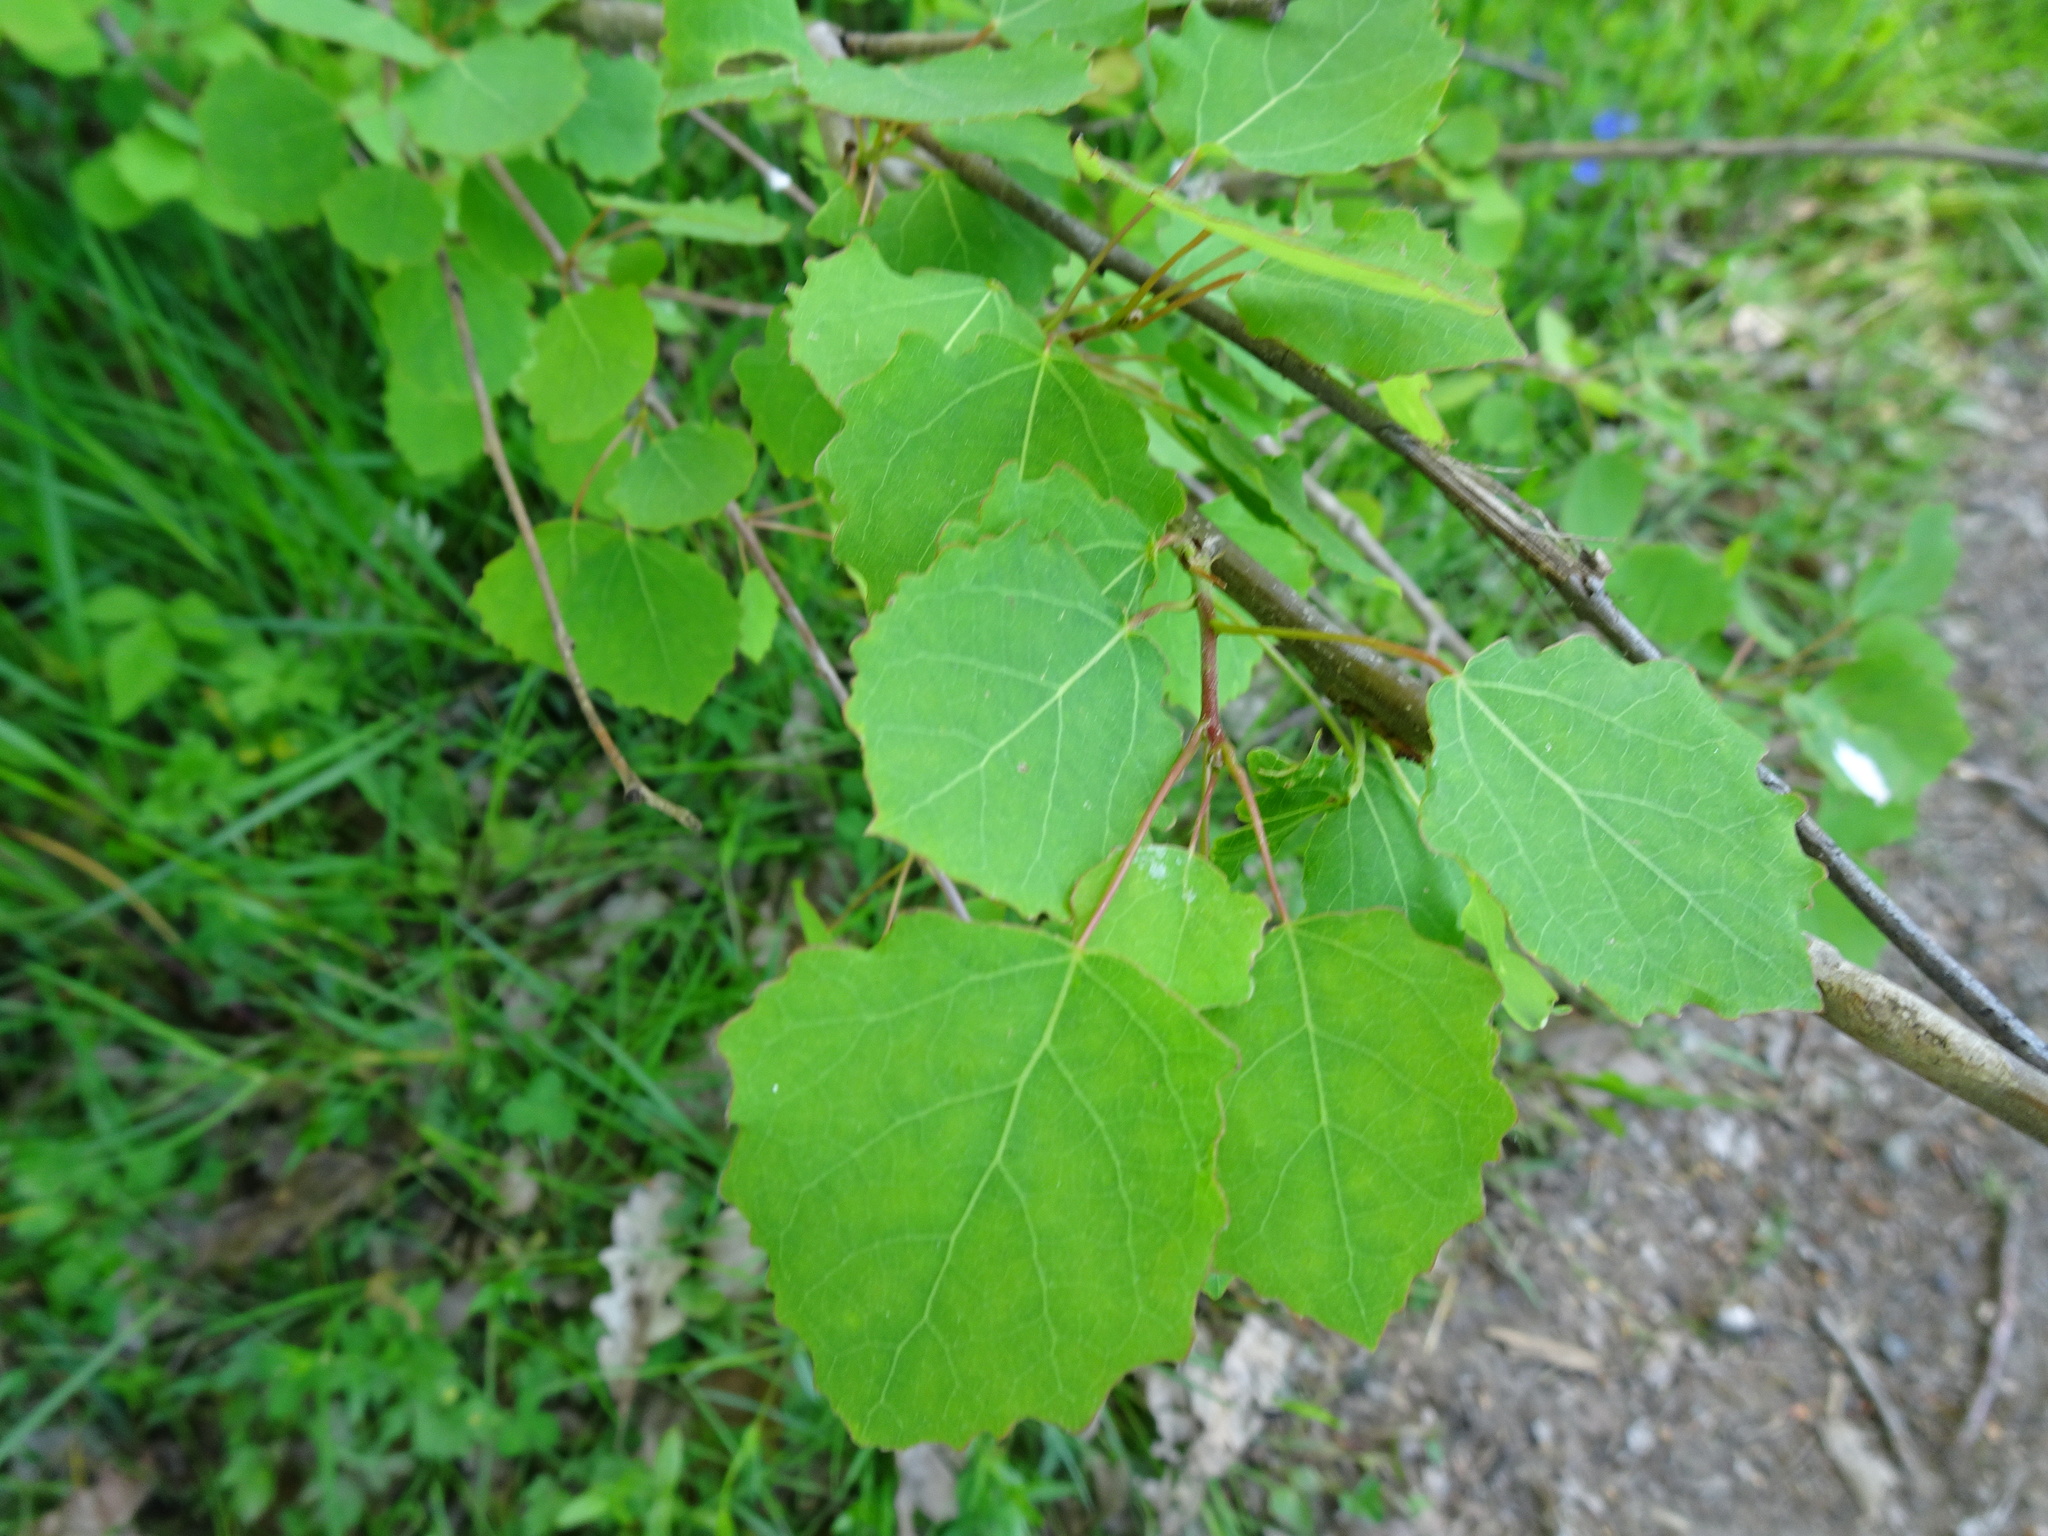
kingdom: Plantae
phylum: Tracheophyta
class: Magnoliopsida
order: Malpighiales
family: Salicaceae
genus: Populus
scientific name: Populus tremula
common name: European aspen
